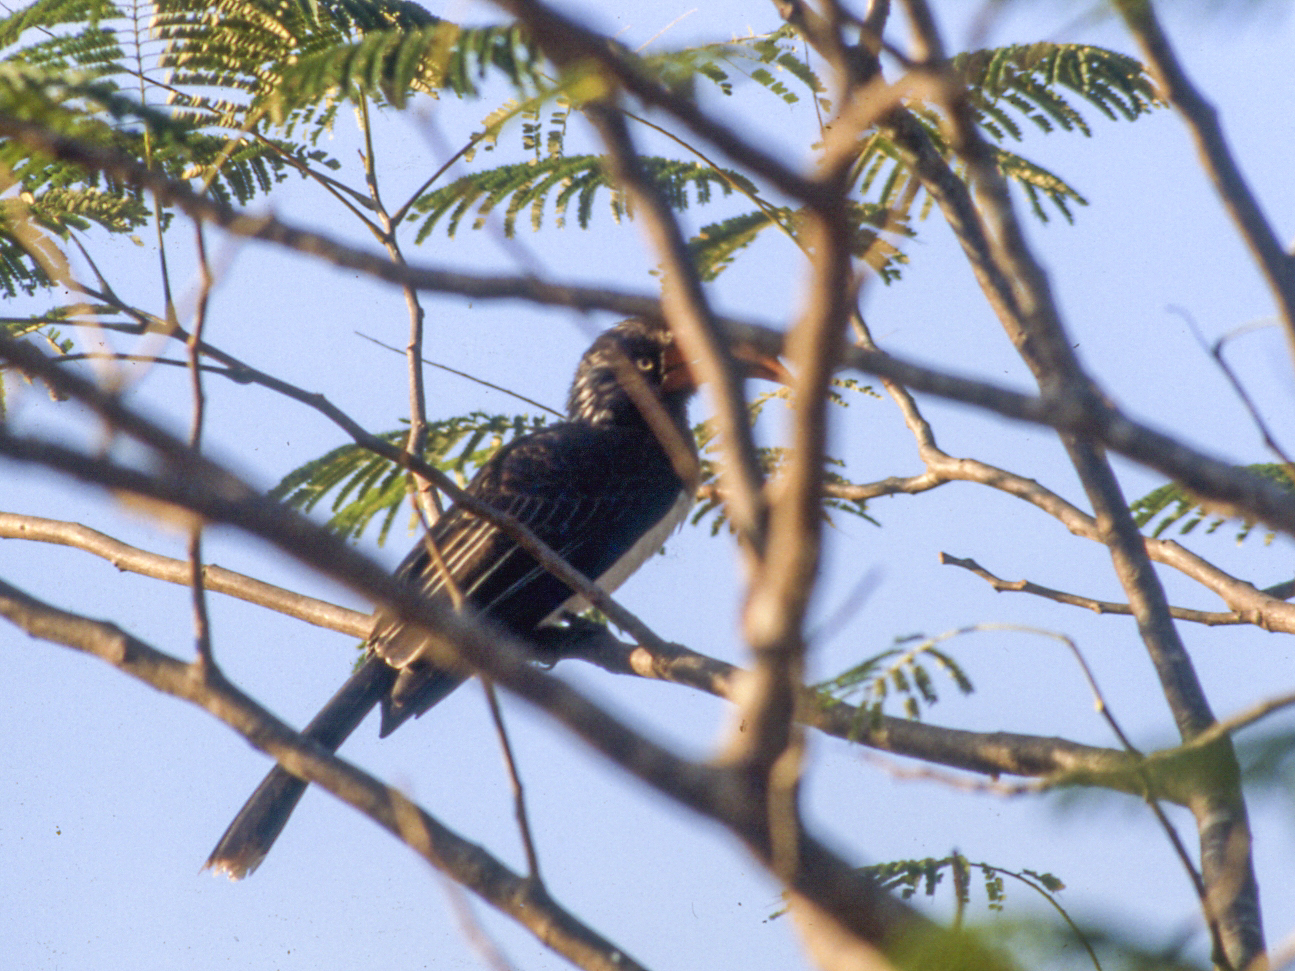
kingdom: Animalia
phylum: Chordata
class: Aves
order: Bucerotiformes
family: Bucerotidae
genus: Lophoceros
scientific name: Lophoceros alboterminatus
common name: Crowned hornbill
